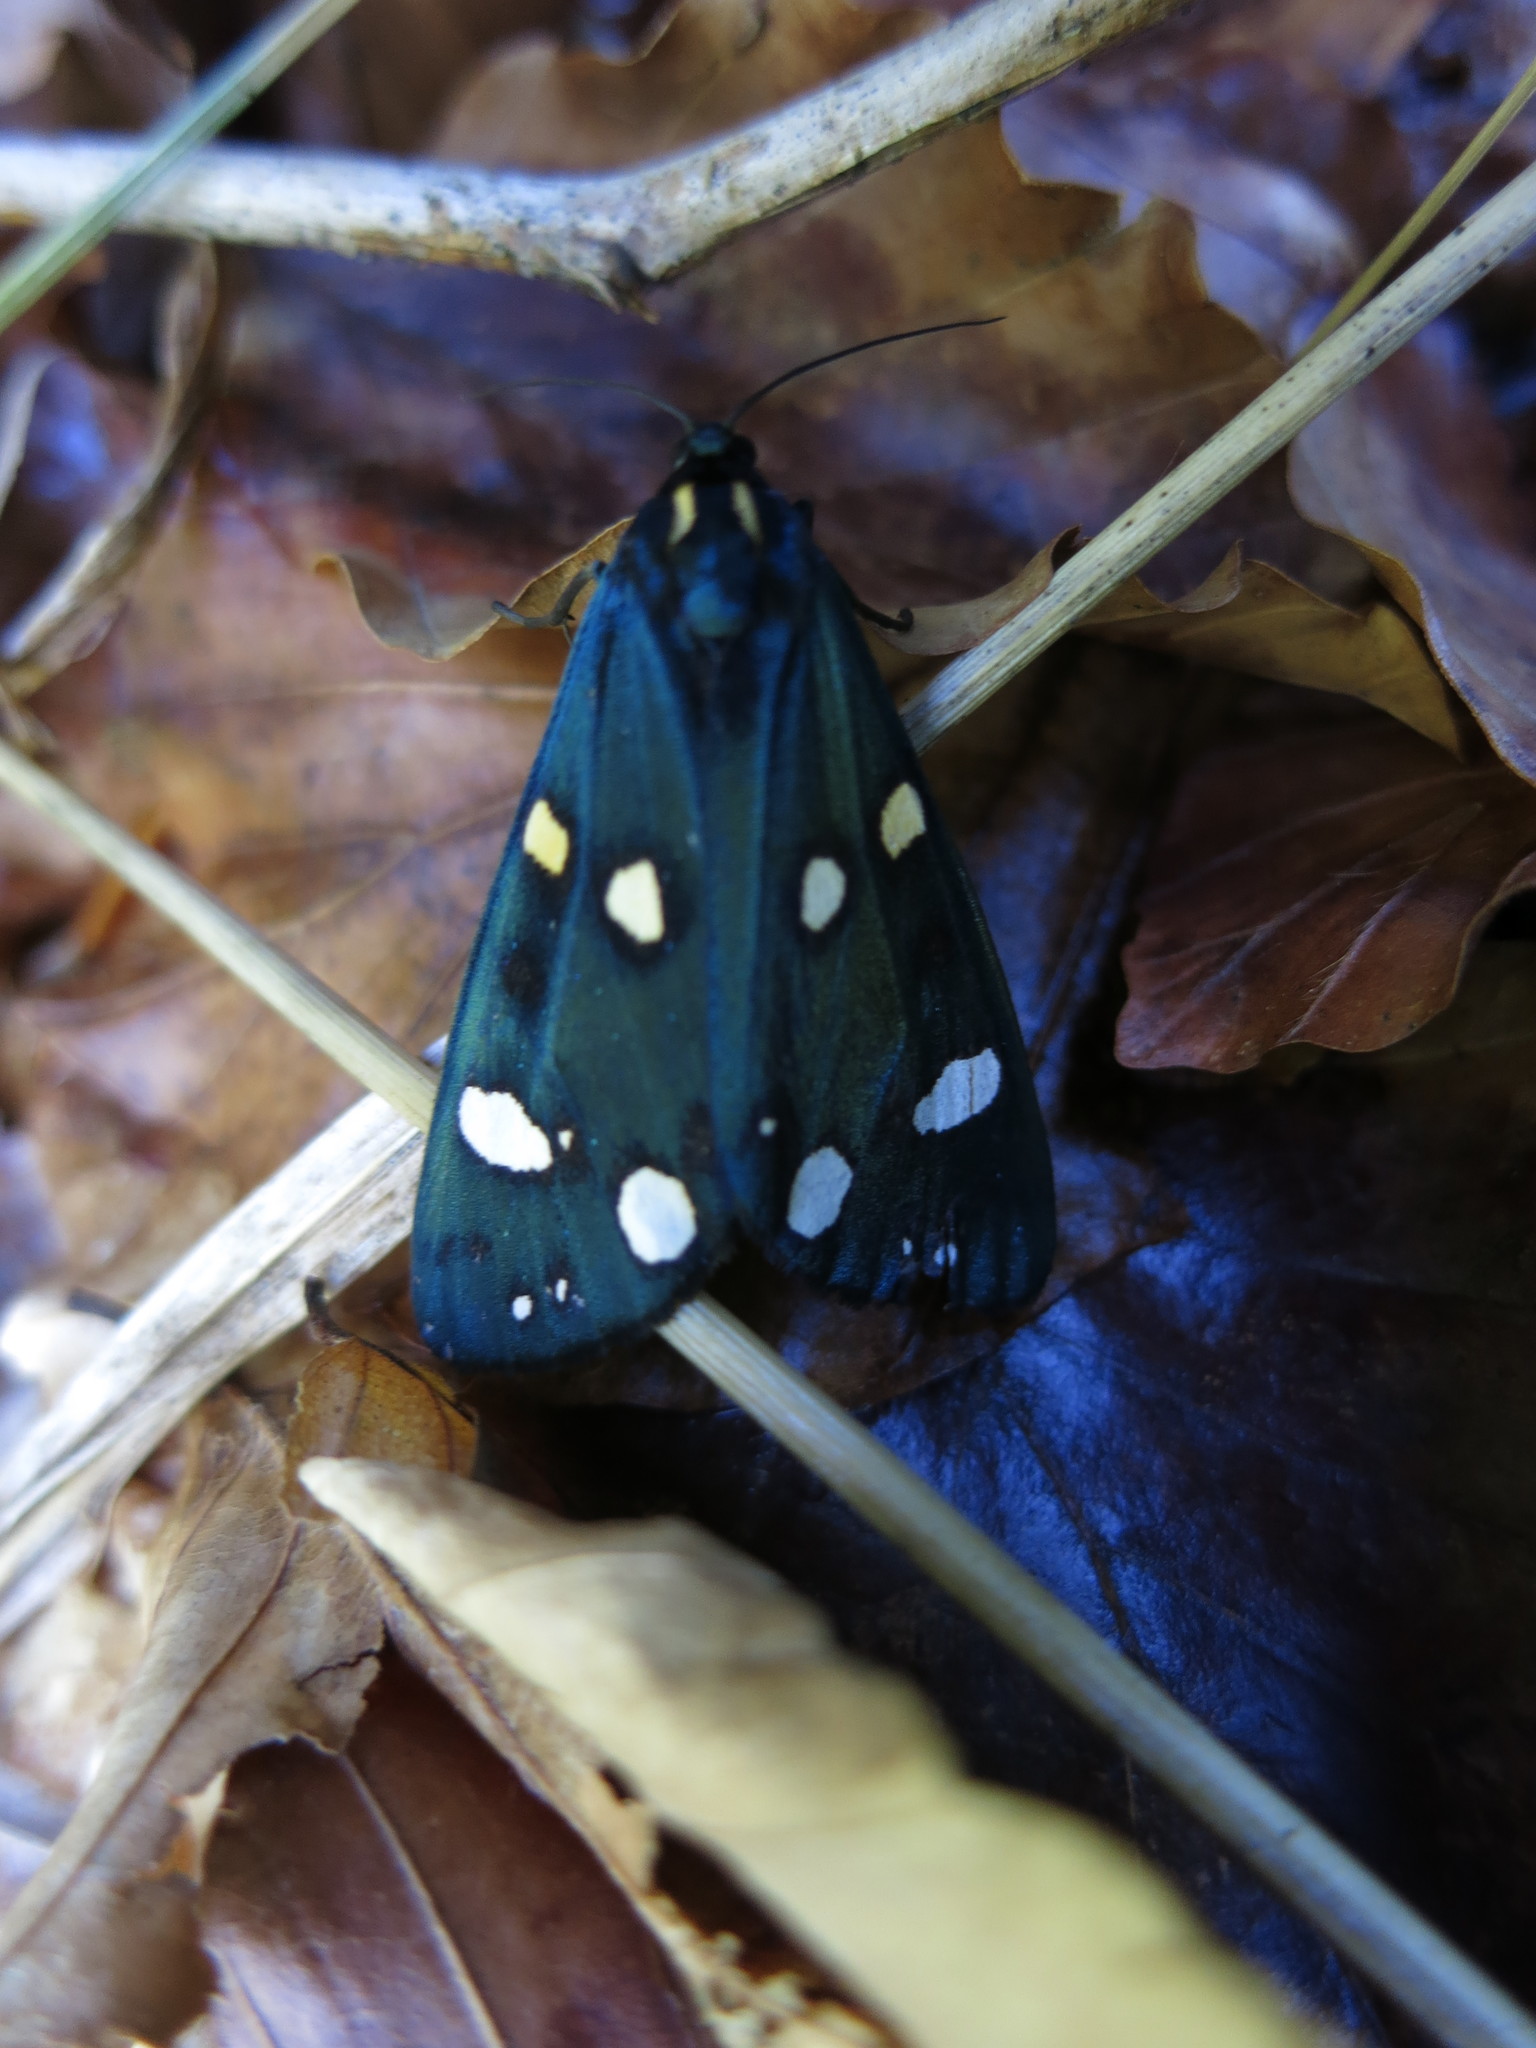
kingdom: Animalia
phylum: Arthropoda
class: Insecta
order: Lepidoptera
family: Erebidae
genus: Callimorpha
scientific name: Callimorpha dominula
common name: Scarlet tiger
